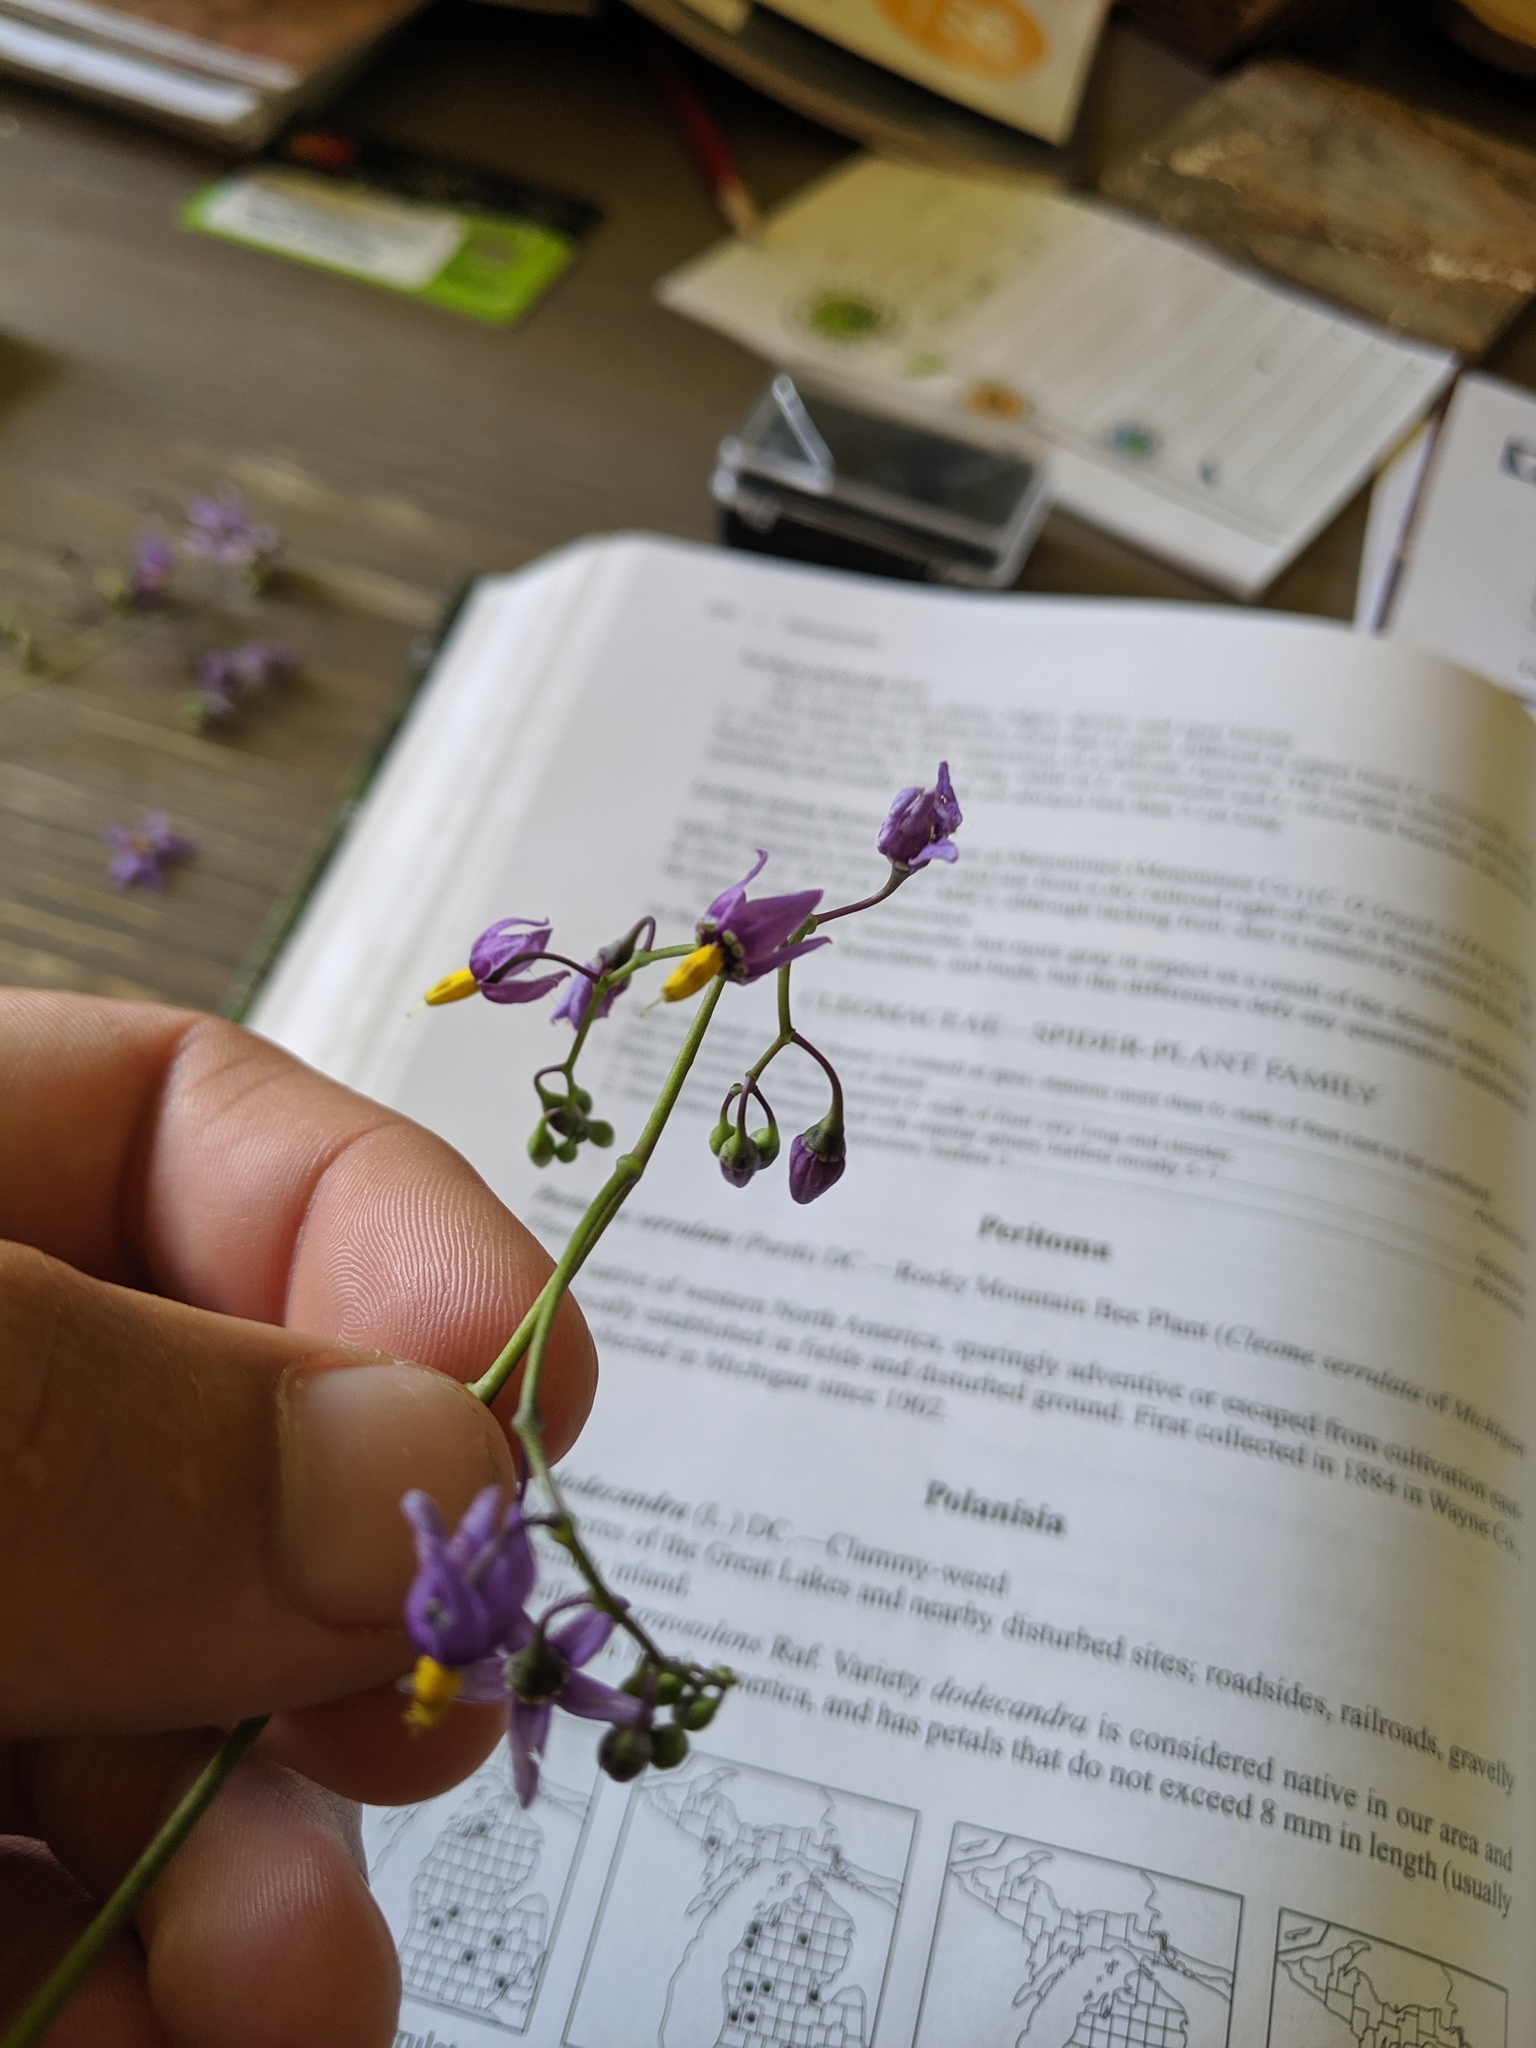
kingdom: Plantae
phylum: Tracheophyta
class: Magnoliopsida
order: Solanales
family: Solanaceae
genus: Solanum
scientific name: Solanum dulcamara
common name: Climbing nightshade
